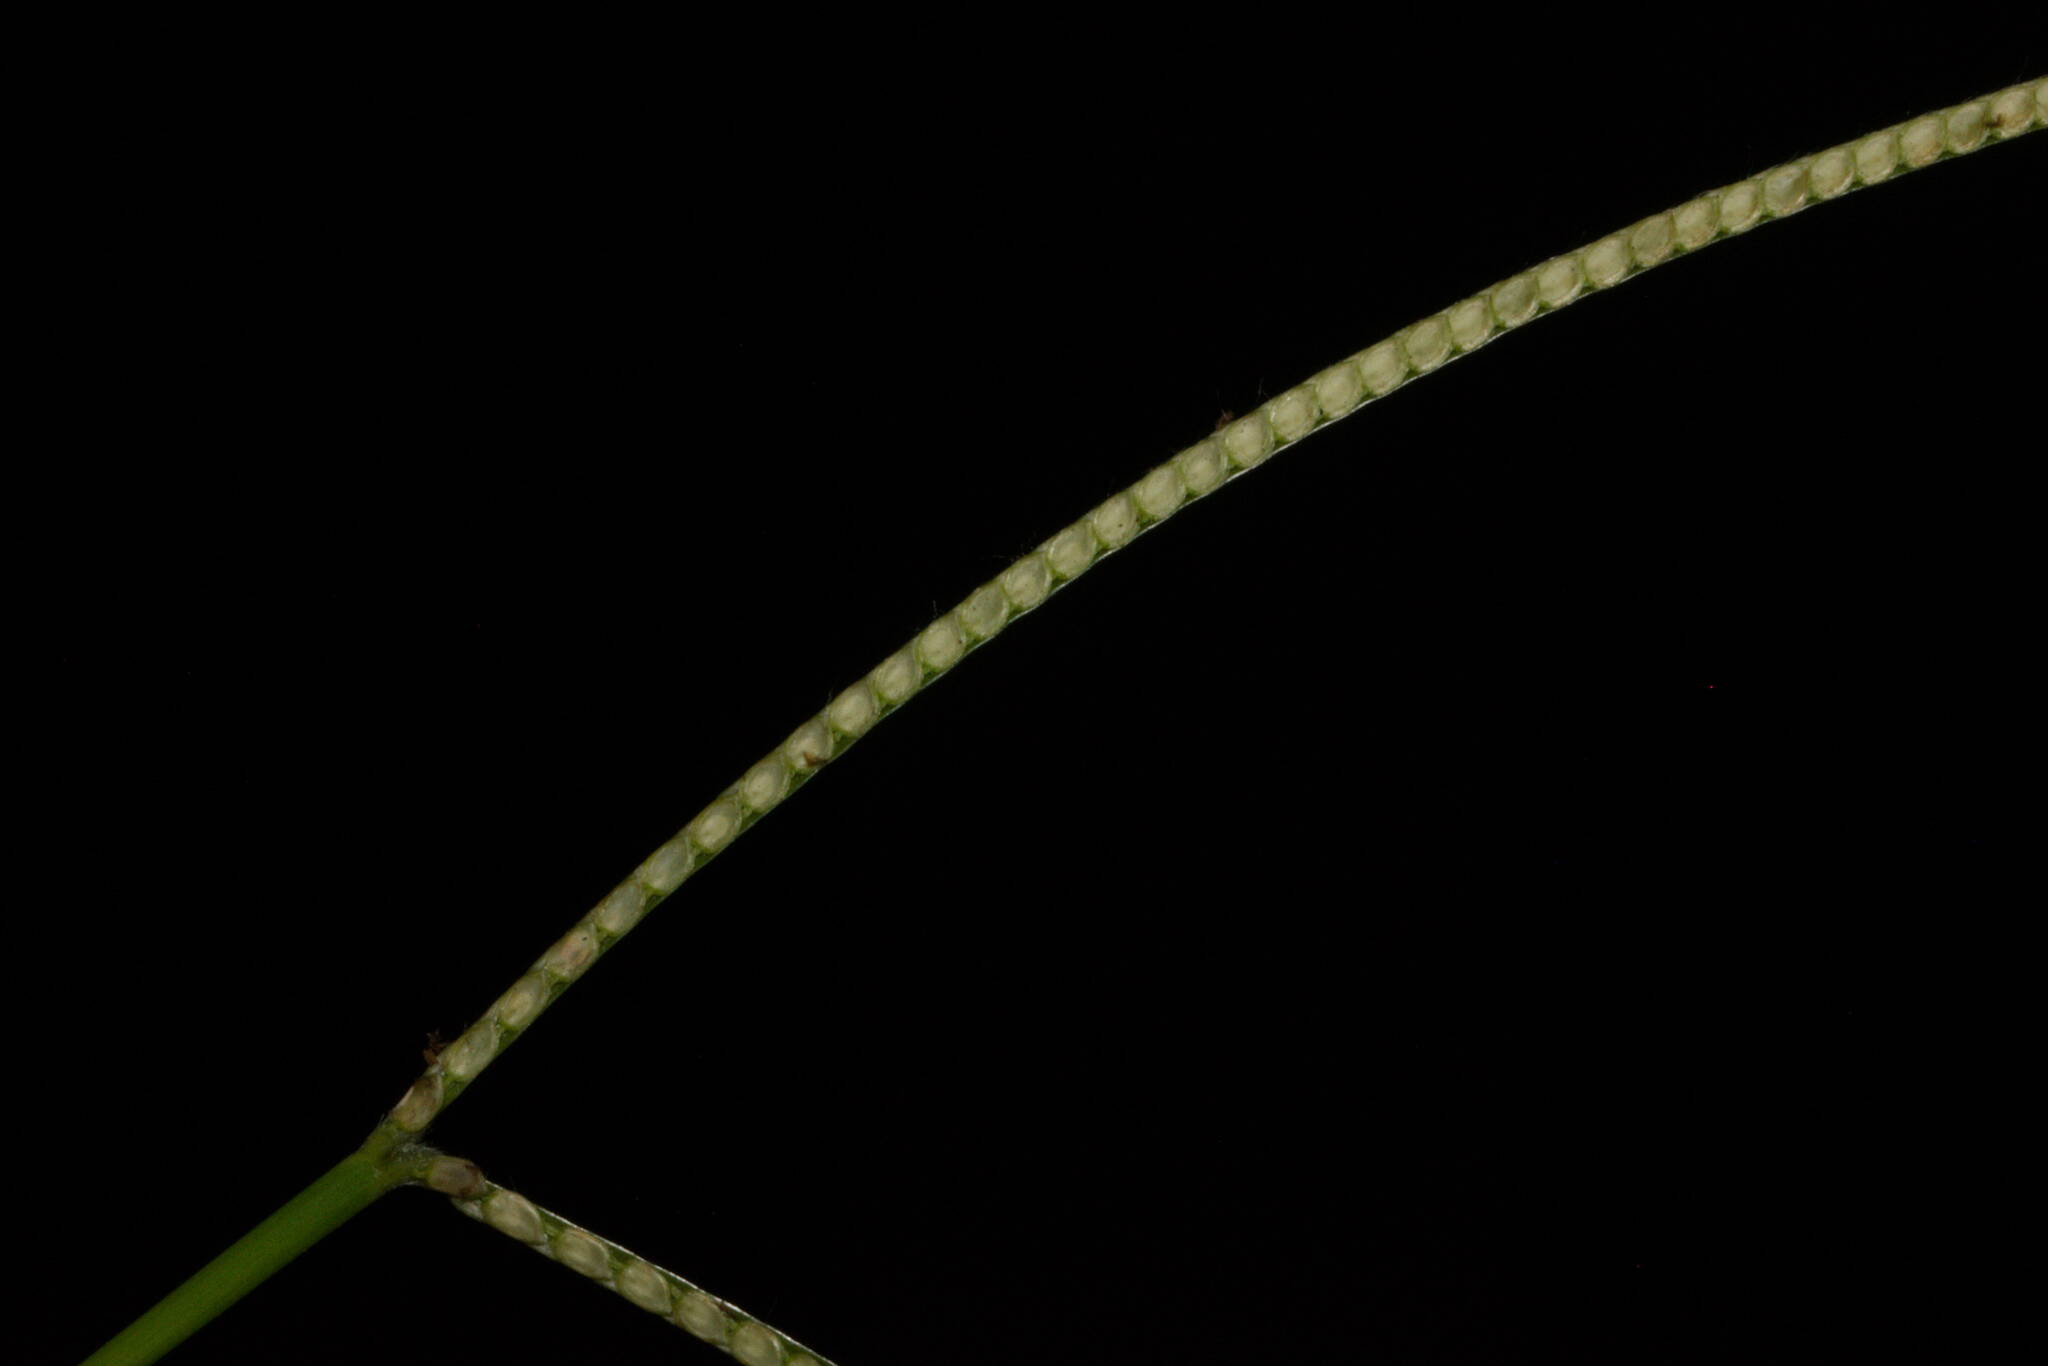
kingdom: Plantae
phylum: Tracheophyta
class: Liliopsida
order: Poales
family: Poaceae
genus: Paspalum
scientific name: Paspalum conjugatum
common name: Hilograss
